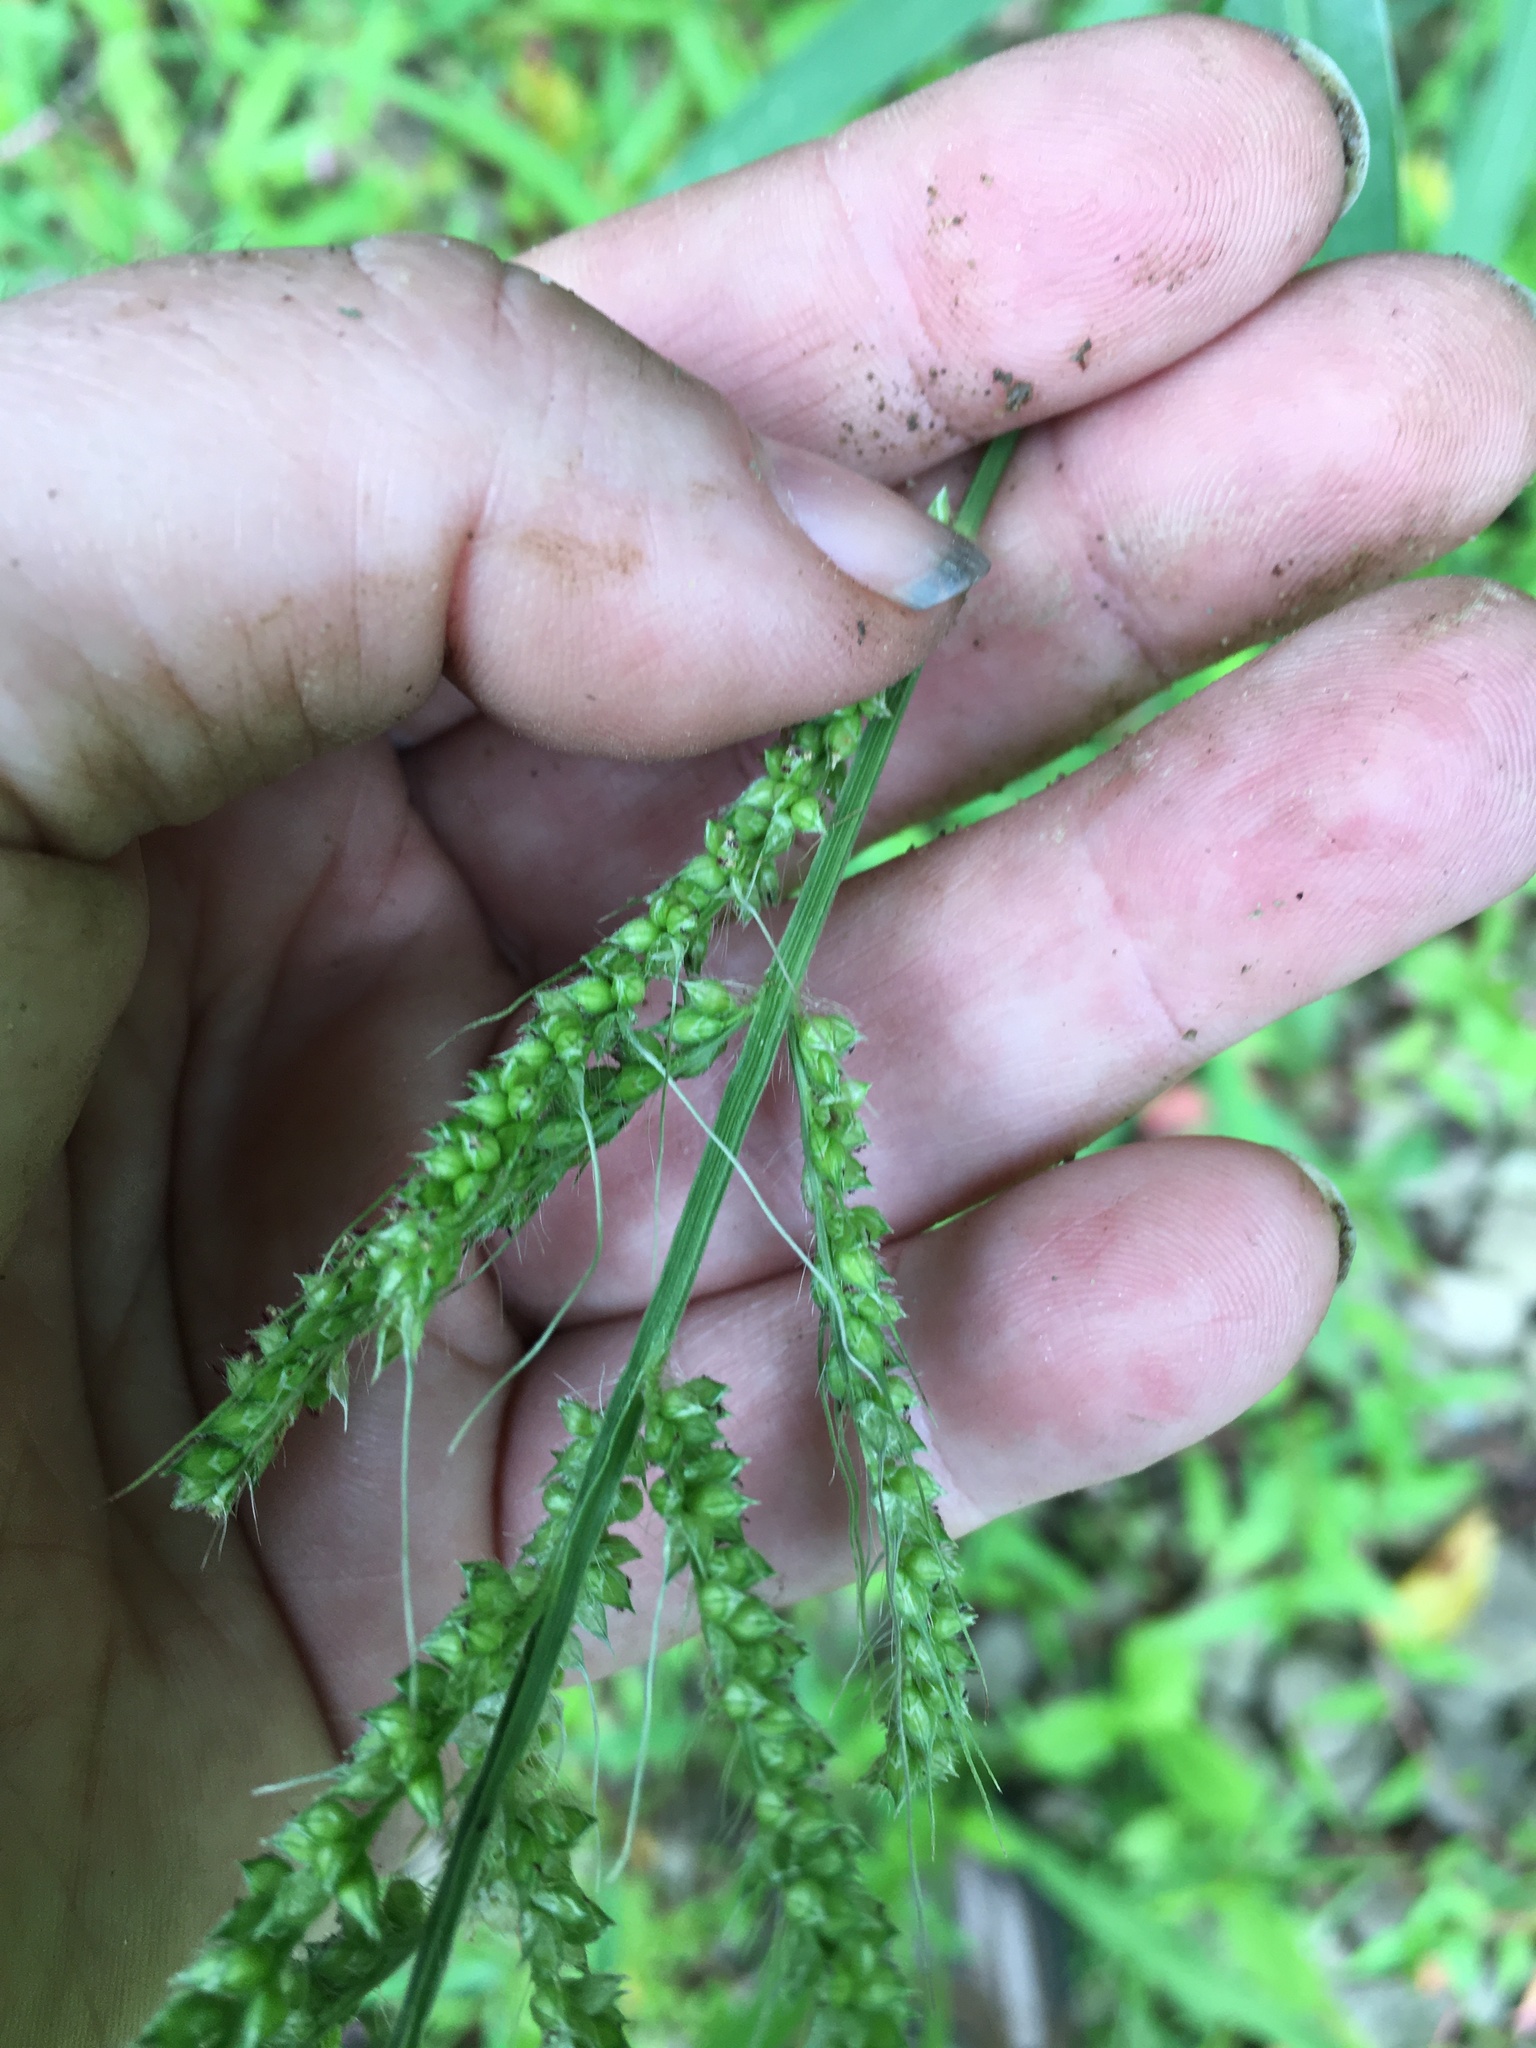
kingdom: Plantae
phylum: Tracheophyta
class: Liliopsida
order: Poales
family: Poaceae
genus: Echinochloa
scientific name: Echinochloa crus-galli
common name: Cockspur
